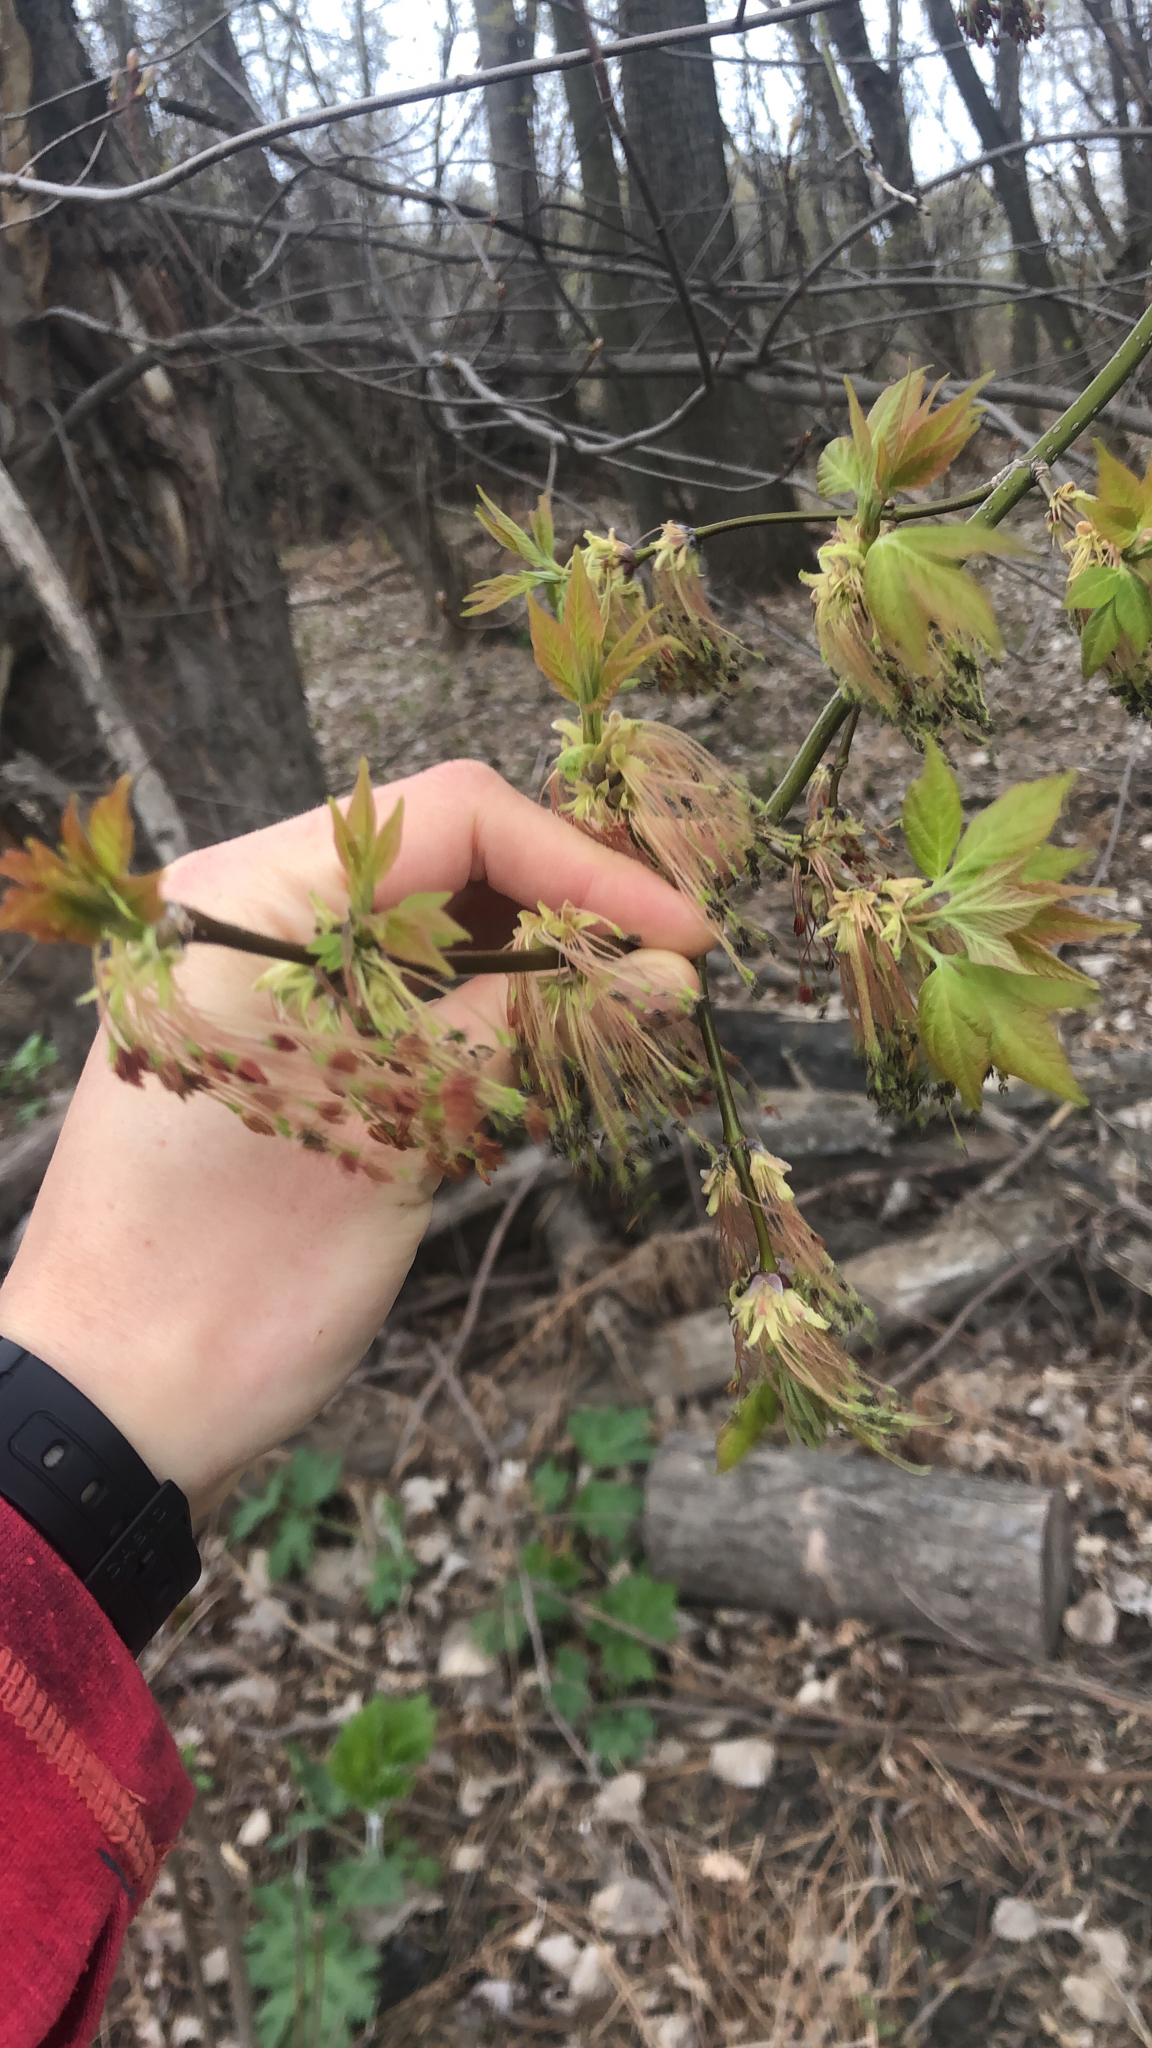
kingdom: Plantae
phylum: Tracheophyta
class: Magnoliopsida
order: Sapindales
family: Sapindaceae
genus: Acer
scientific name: Acer negundo
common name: Ashleaf maple
